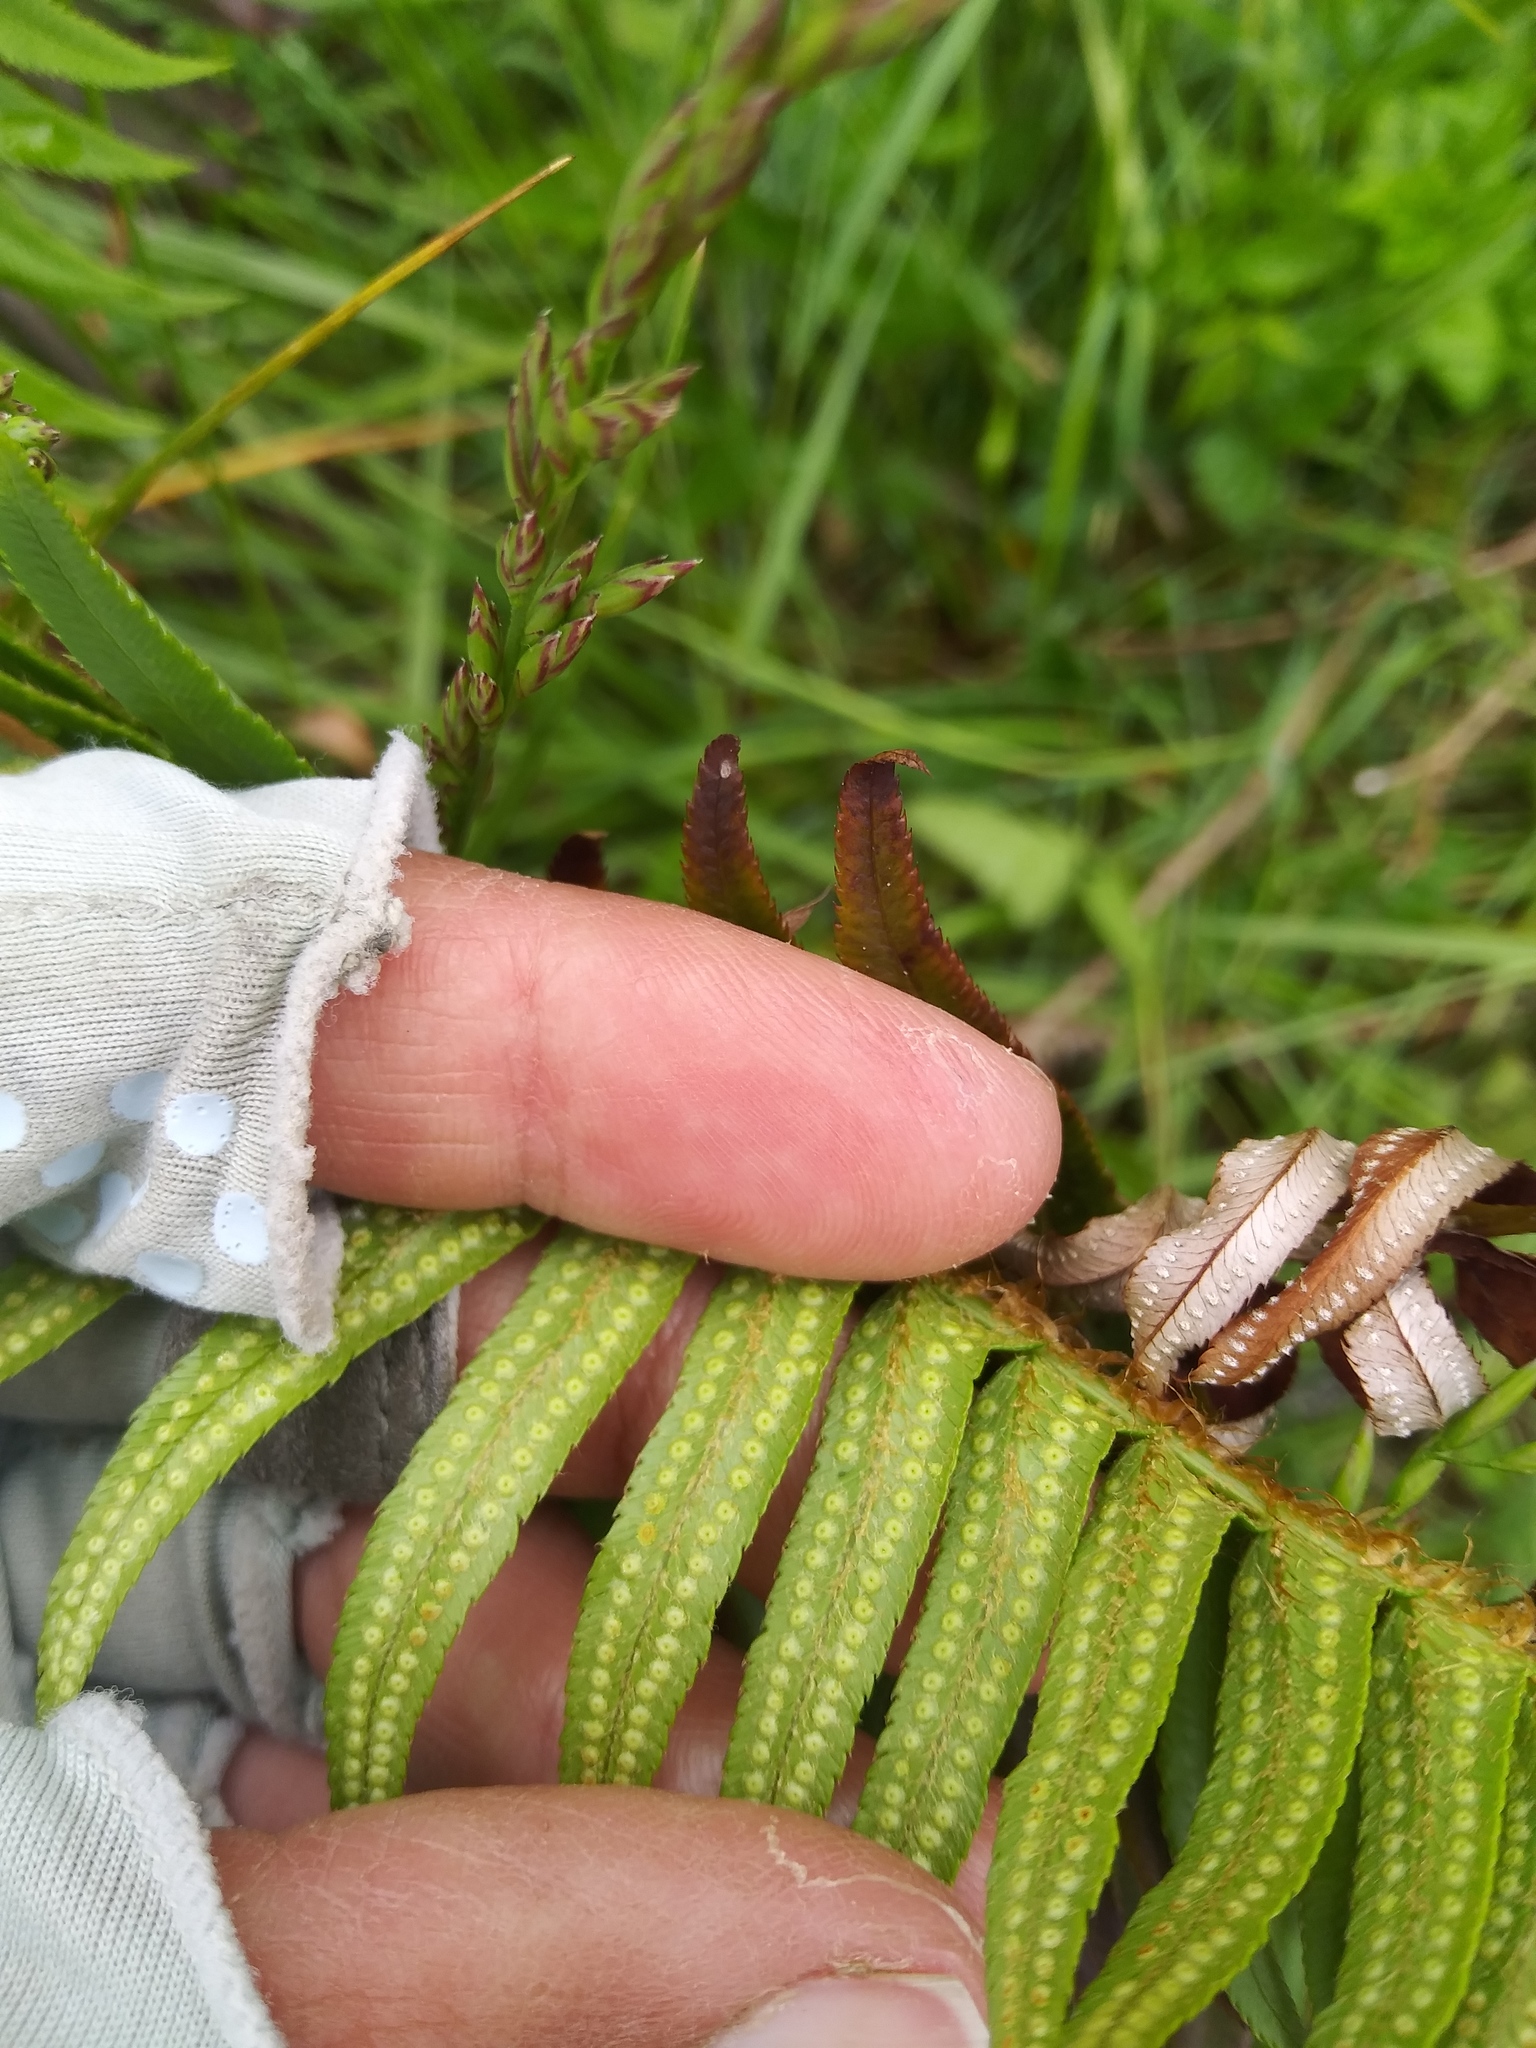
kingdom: Plantae
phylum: Tracheophyta
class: Polypodiopsida
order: Polypodiales
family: Dryopteridaceae
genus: Polystichum
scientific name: Polystichum munitum
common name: Western sword-fern
